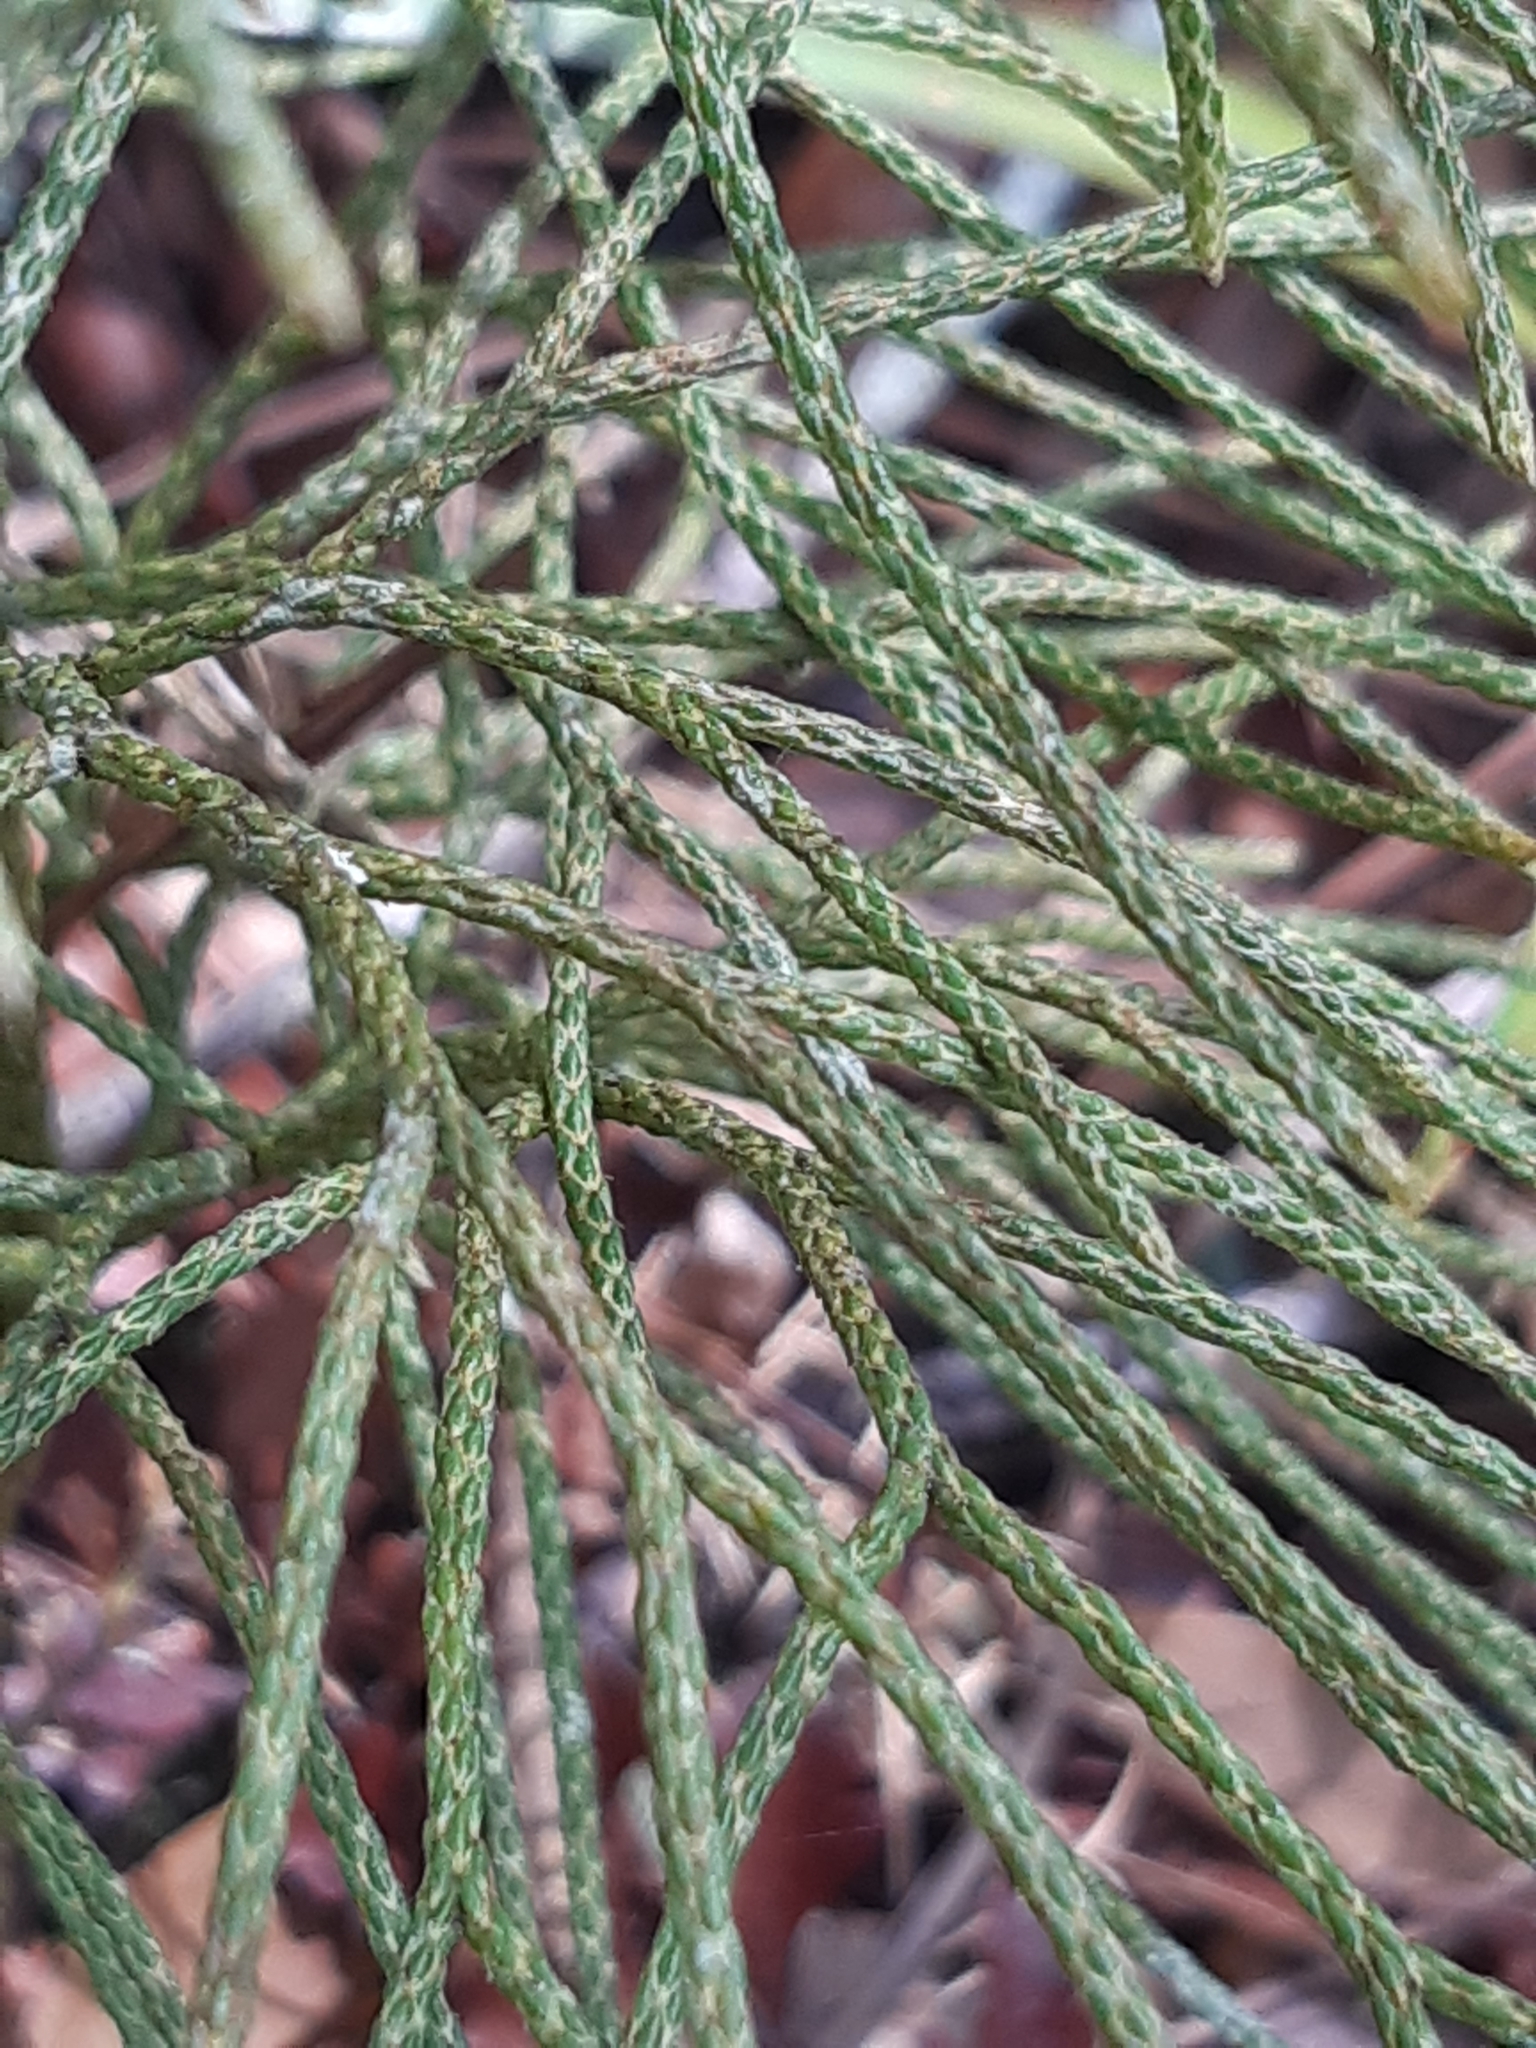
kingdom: Plantae
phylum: Tracheophyta
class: Lycopodiopsida
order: Lycopodiales
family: Lycopodiaceae
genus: Pseudolycopodium
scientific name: Pseudolycopodium densum
